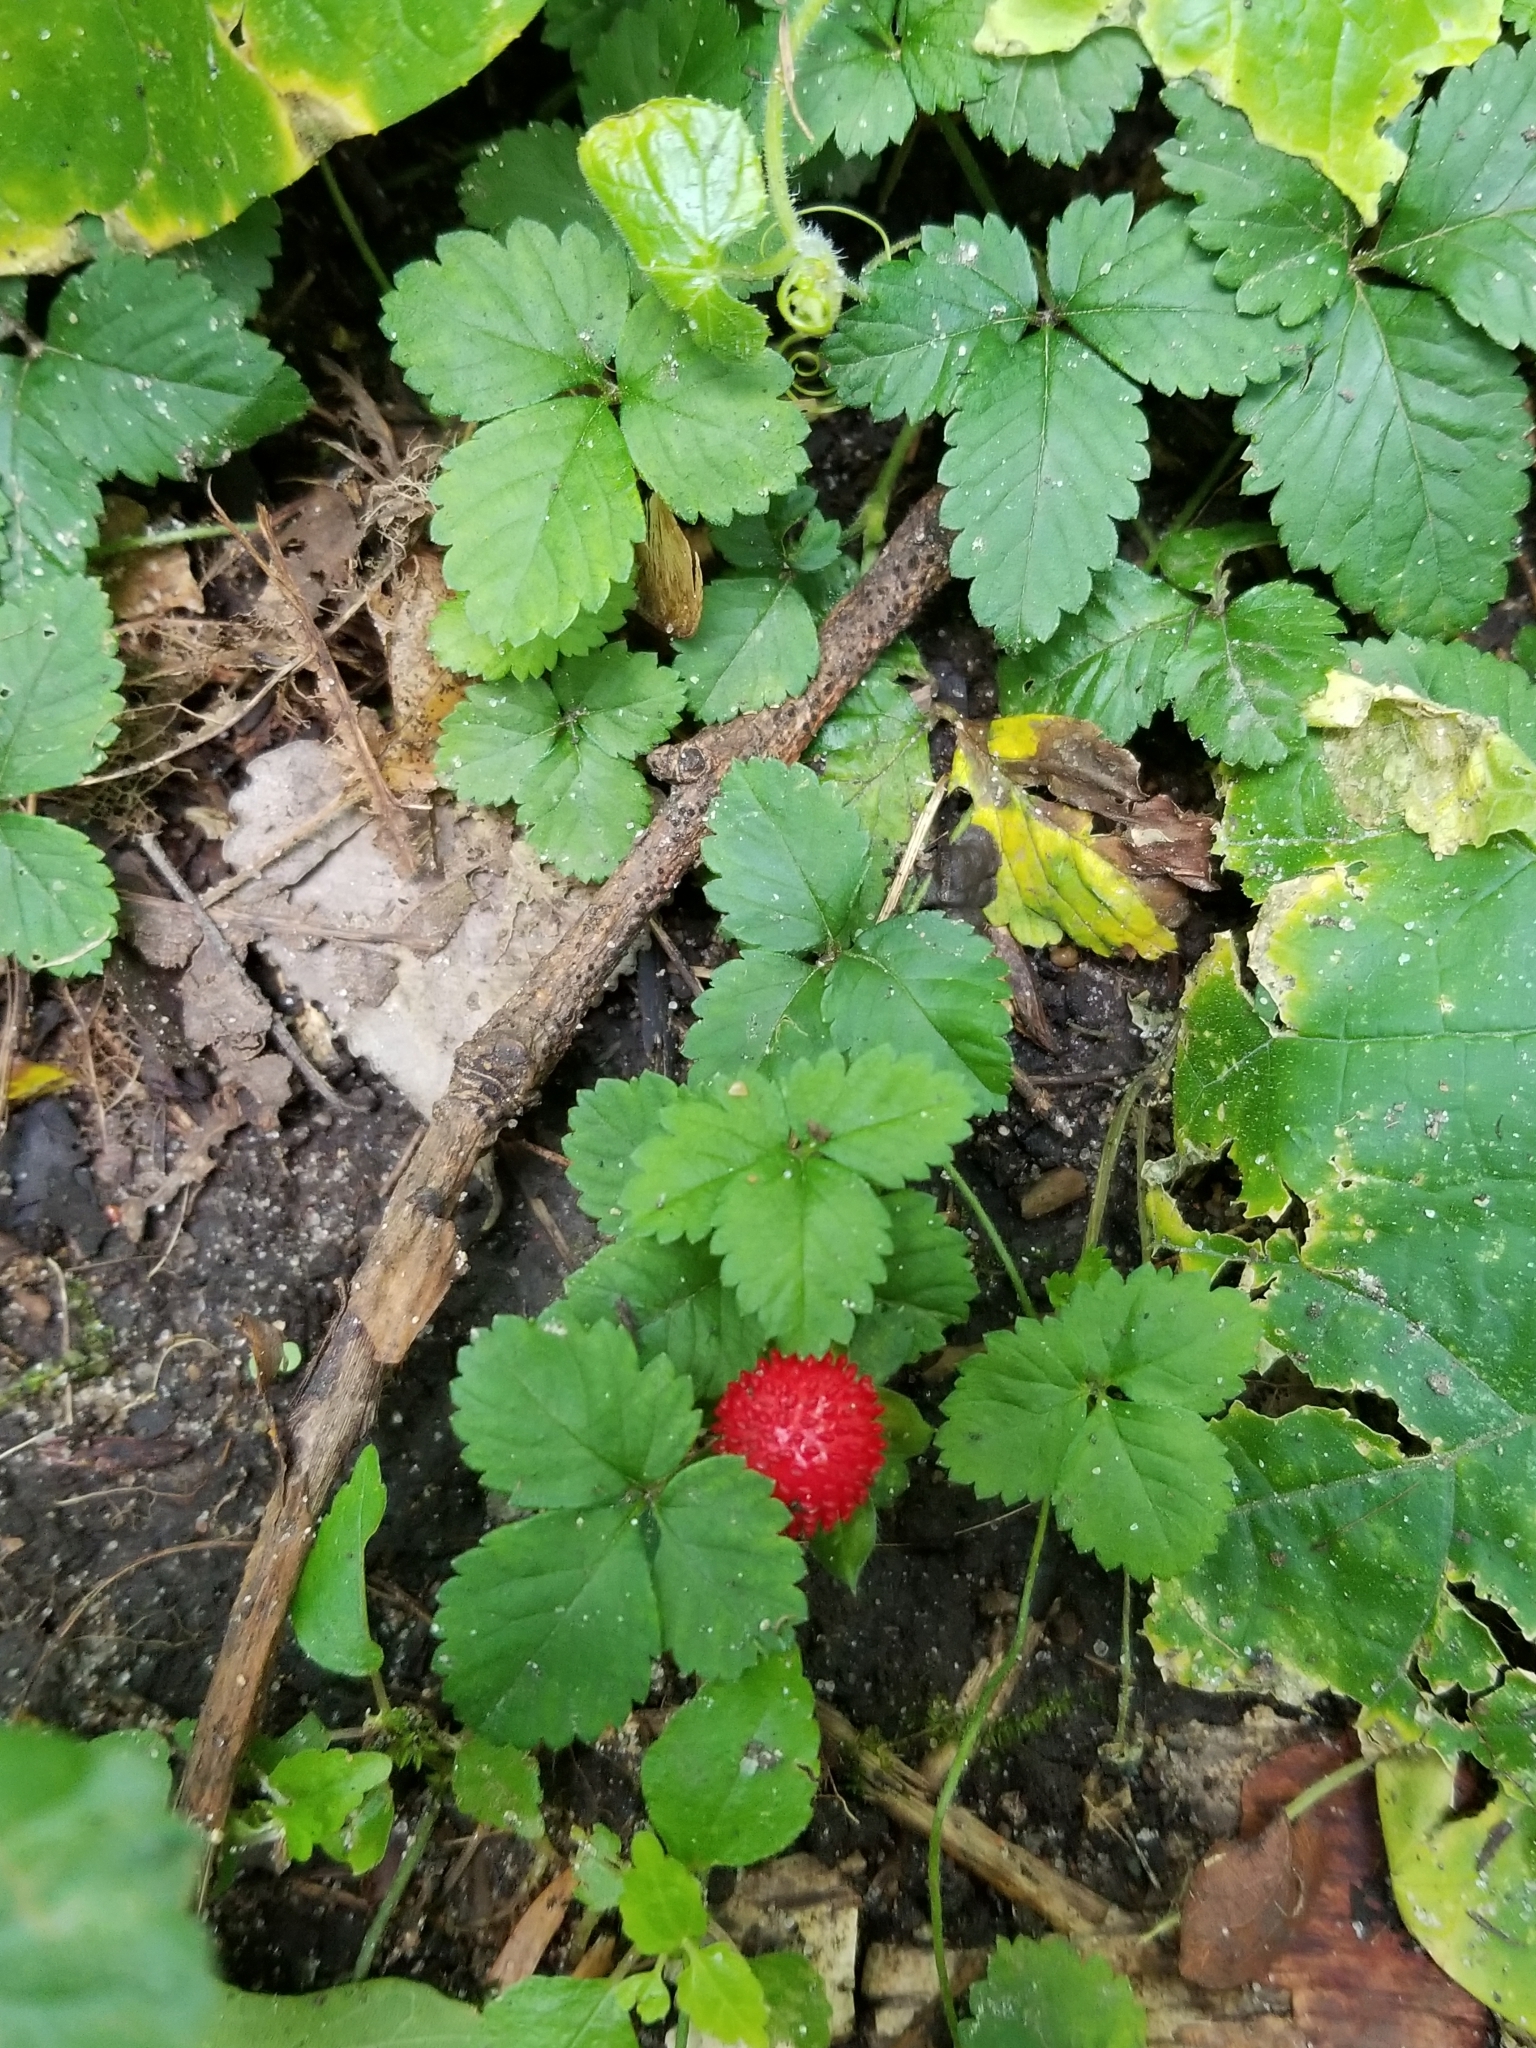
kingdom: Plantae
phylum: Tracheophyta
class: Magnoliopsida
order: Rosales
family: Rosaceae
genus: Potentilla
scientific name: Potentilla indica
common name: Yellow-flowered strawberry
